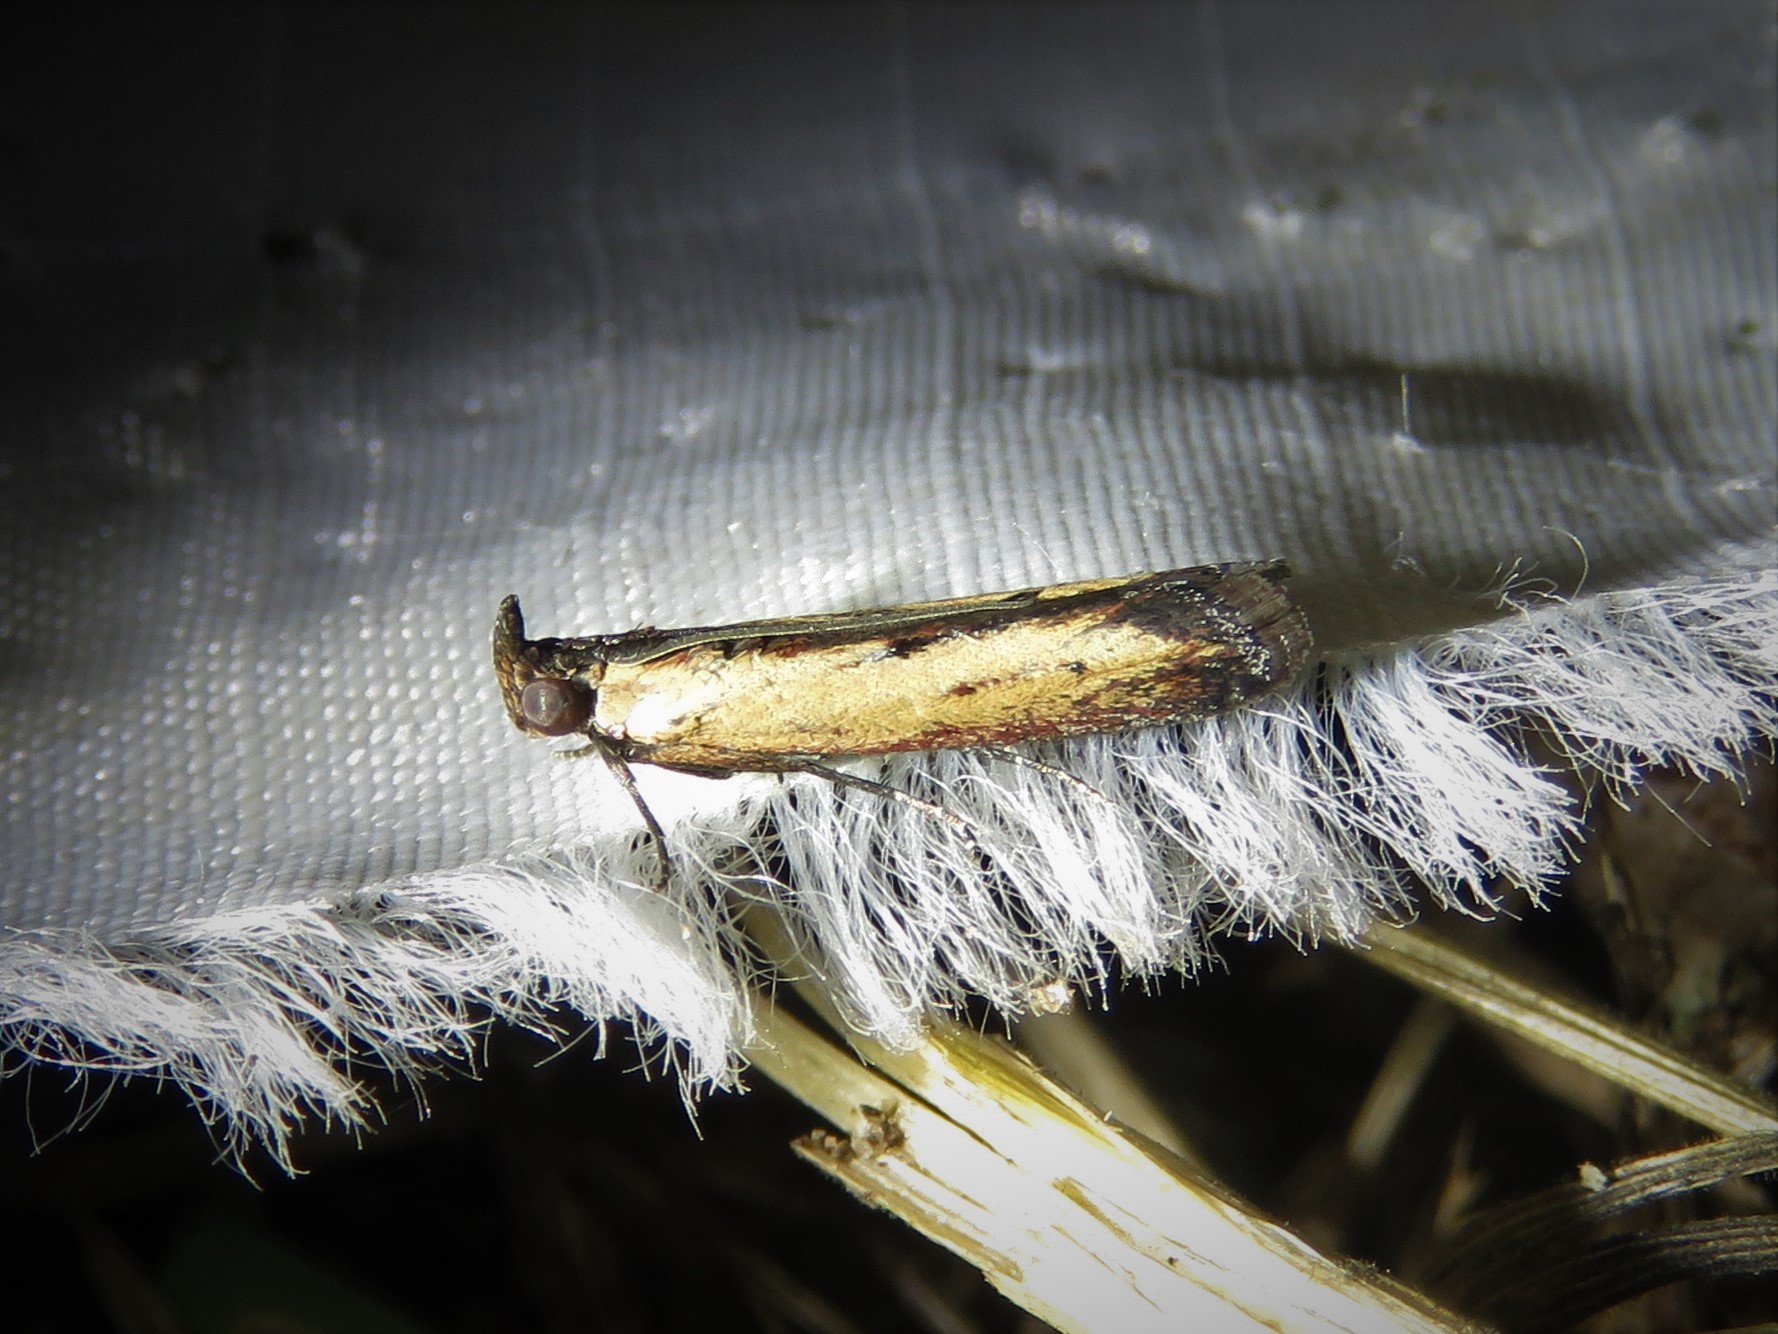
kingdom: Animalia
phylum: Arthropoda
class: Insecta
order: Lepidoptera
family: Pyralidae
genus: Elasmopalpus
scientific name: Elasmopalpus lignosella
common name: Lesser cornstalk borer
